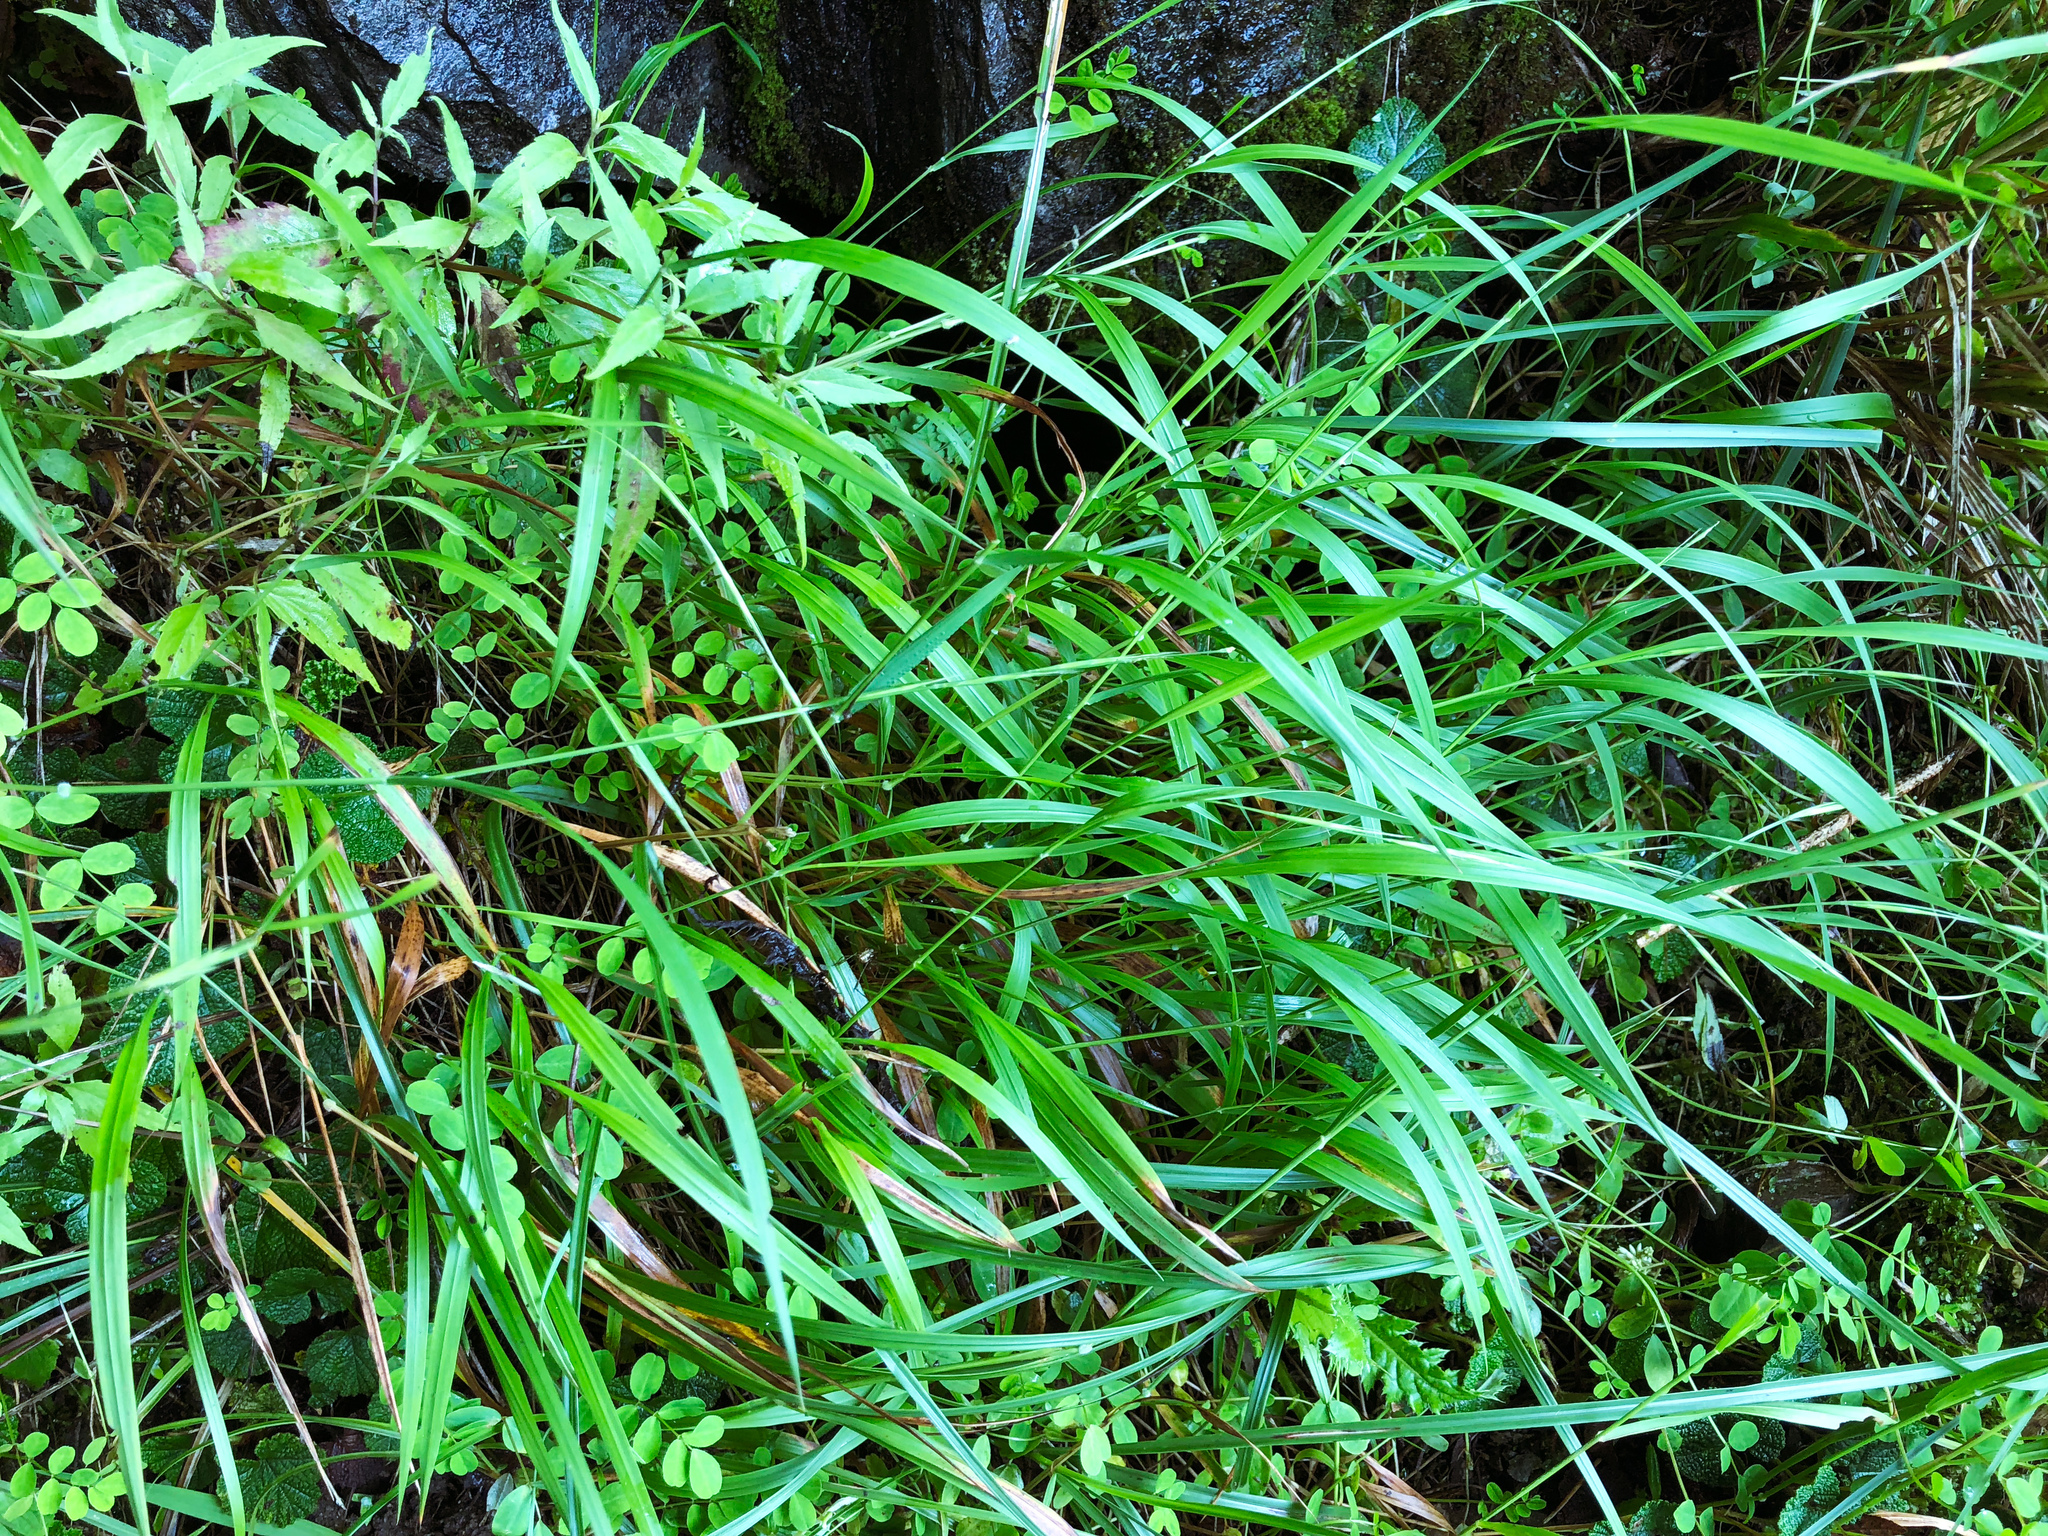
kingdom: Plantae
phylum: Tracheophyta
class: Liliopsida
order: Poales
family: Poaceae
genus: Brachypodium
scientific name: Brachypodium sylvaticum
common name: False-brome
